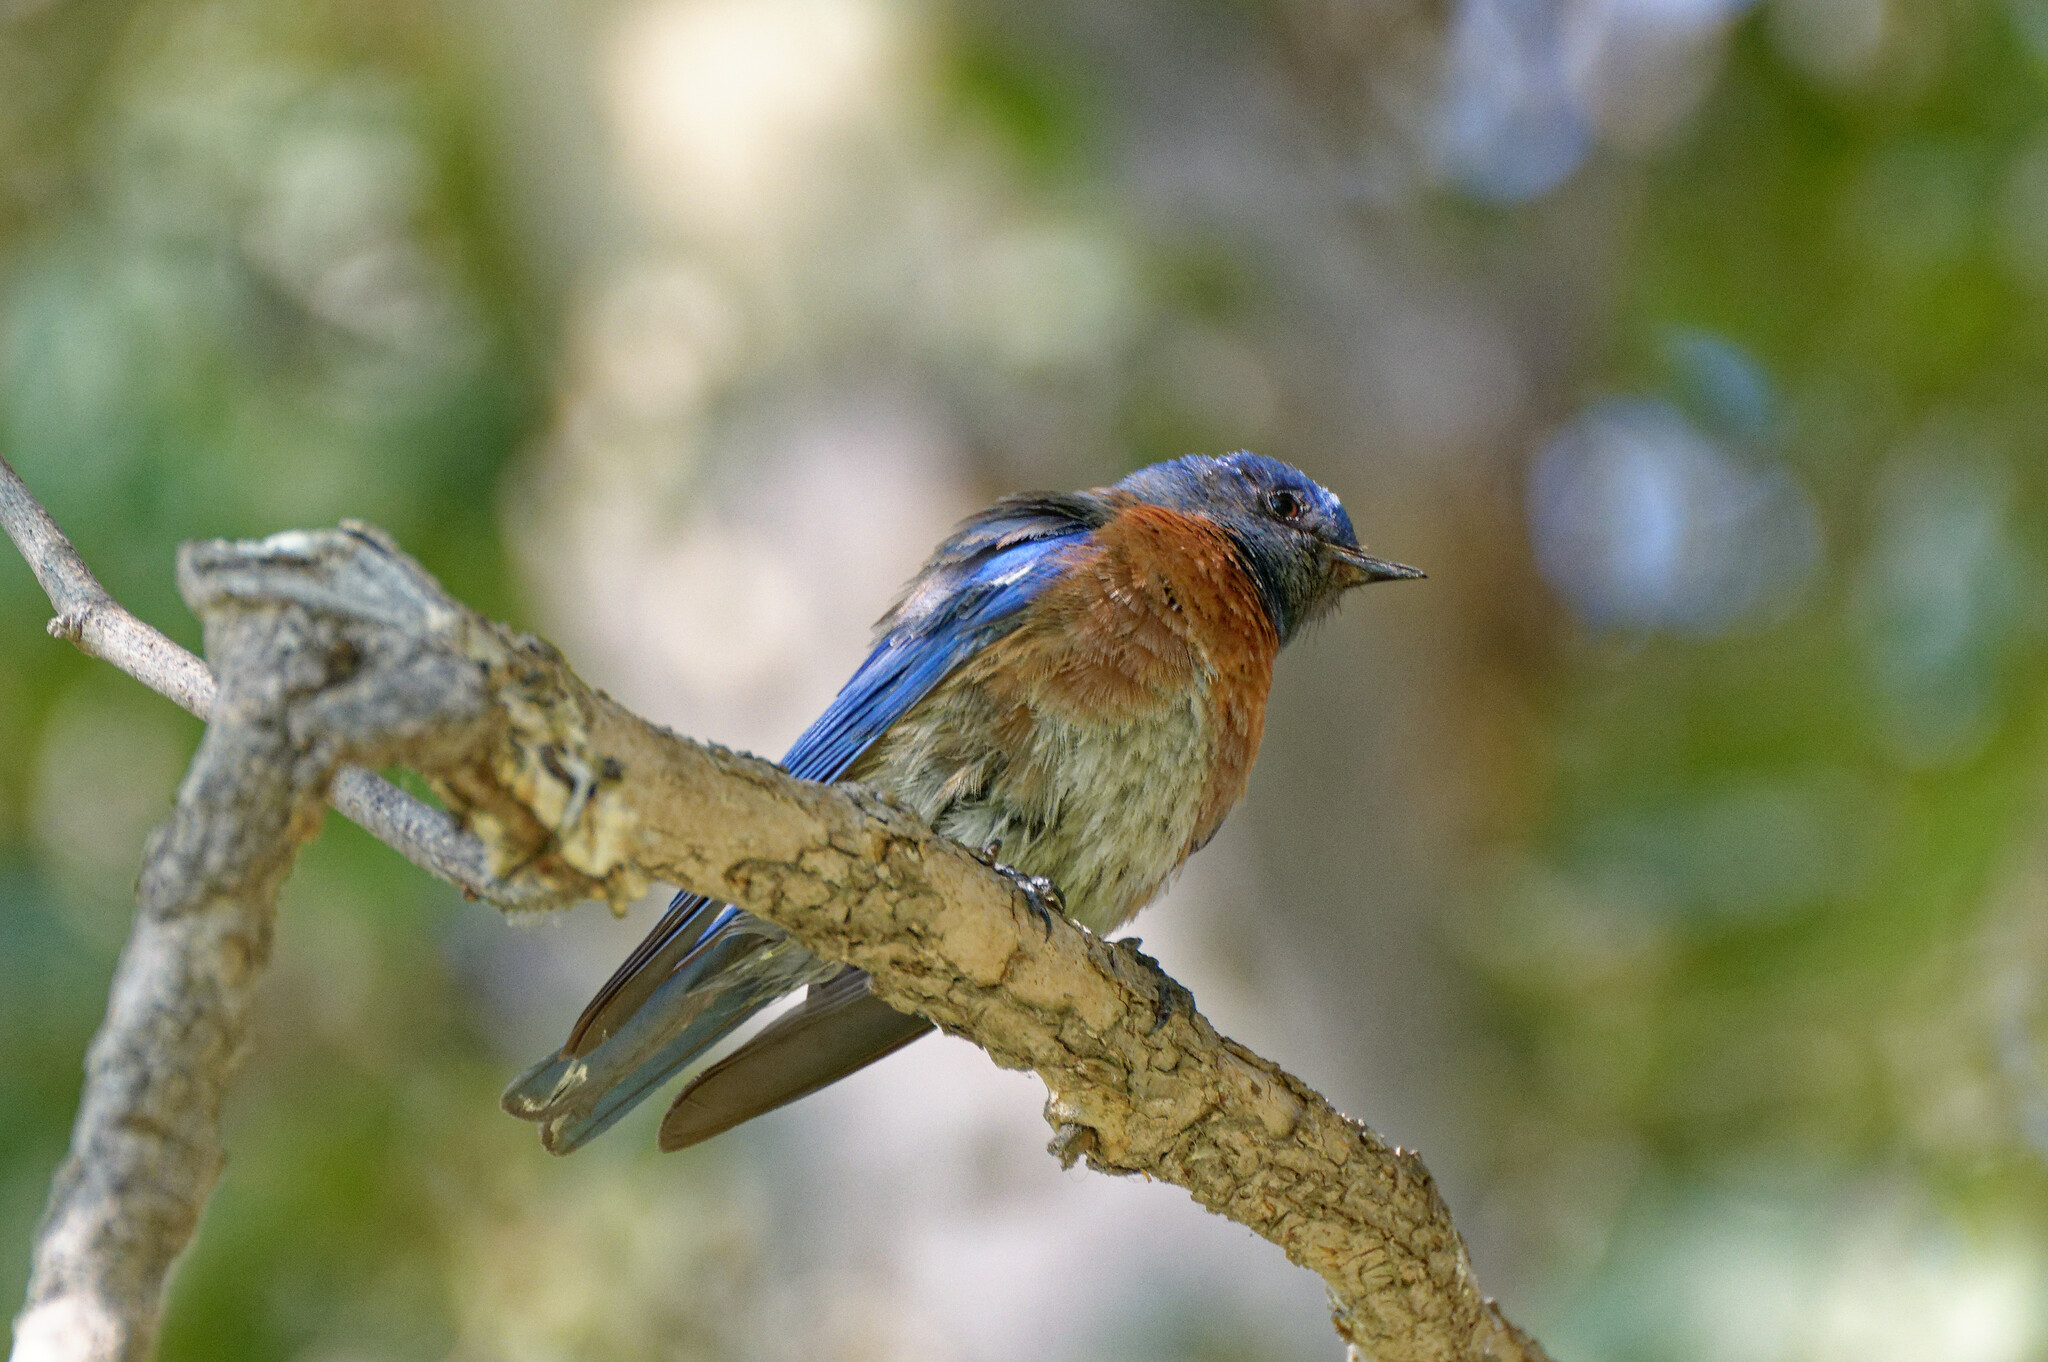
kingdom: Animalia
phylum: Chordata
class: Aves
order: Passeriformes
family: Turdidae
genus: Sialia
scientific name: Sialia mexicana
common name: Western bluebird
